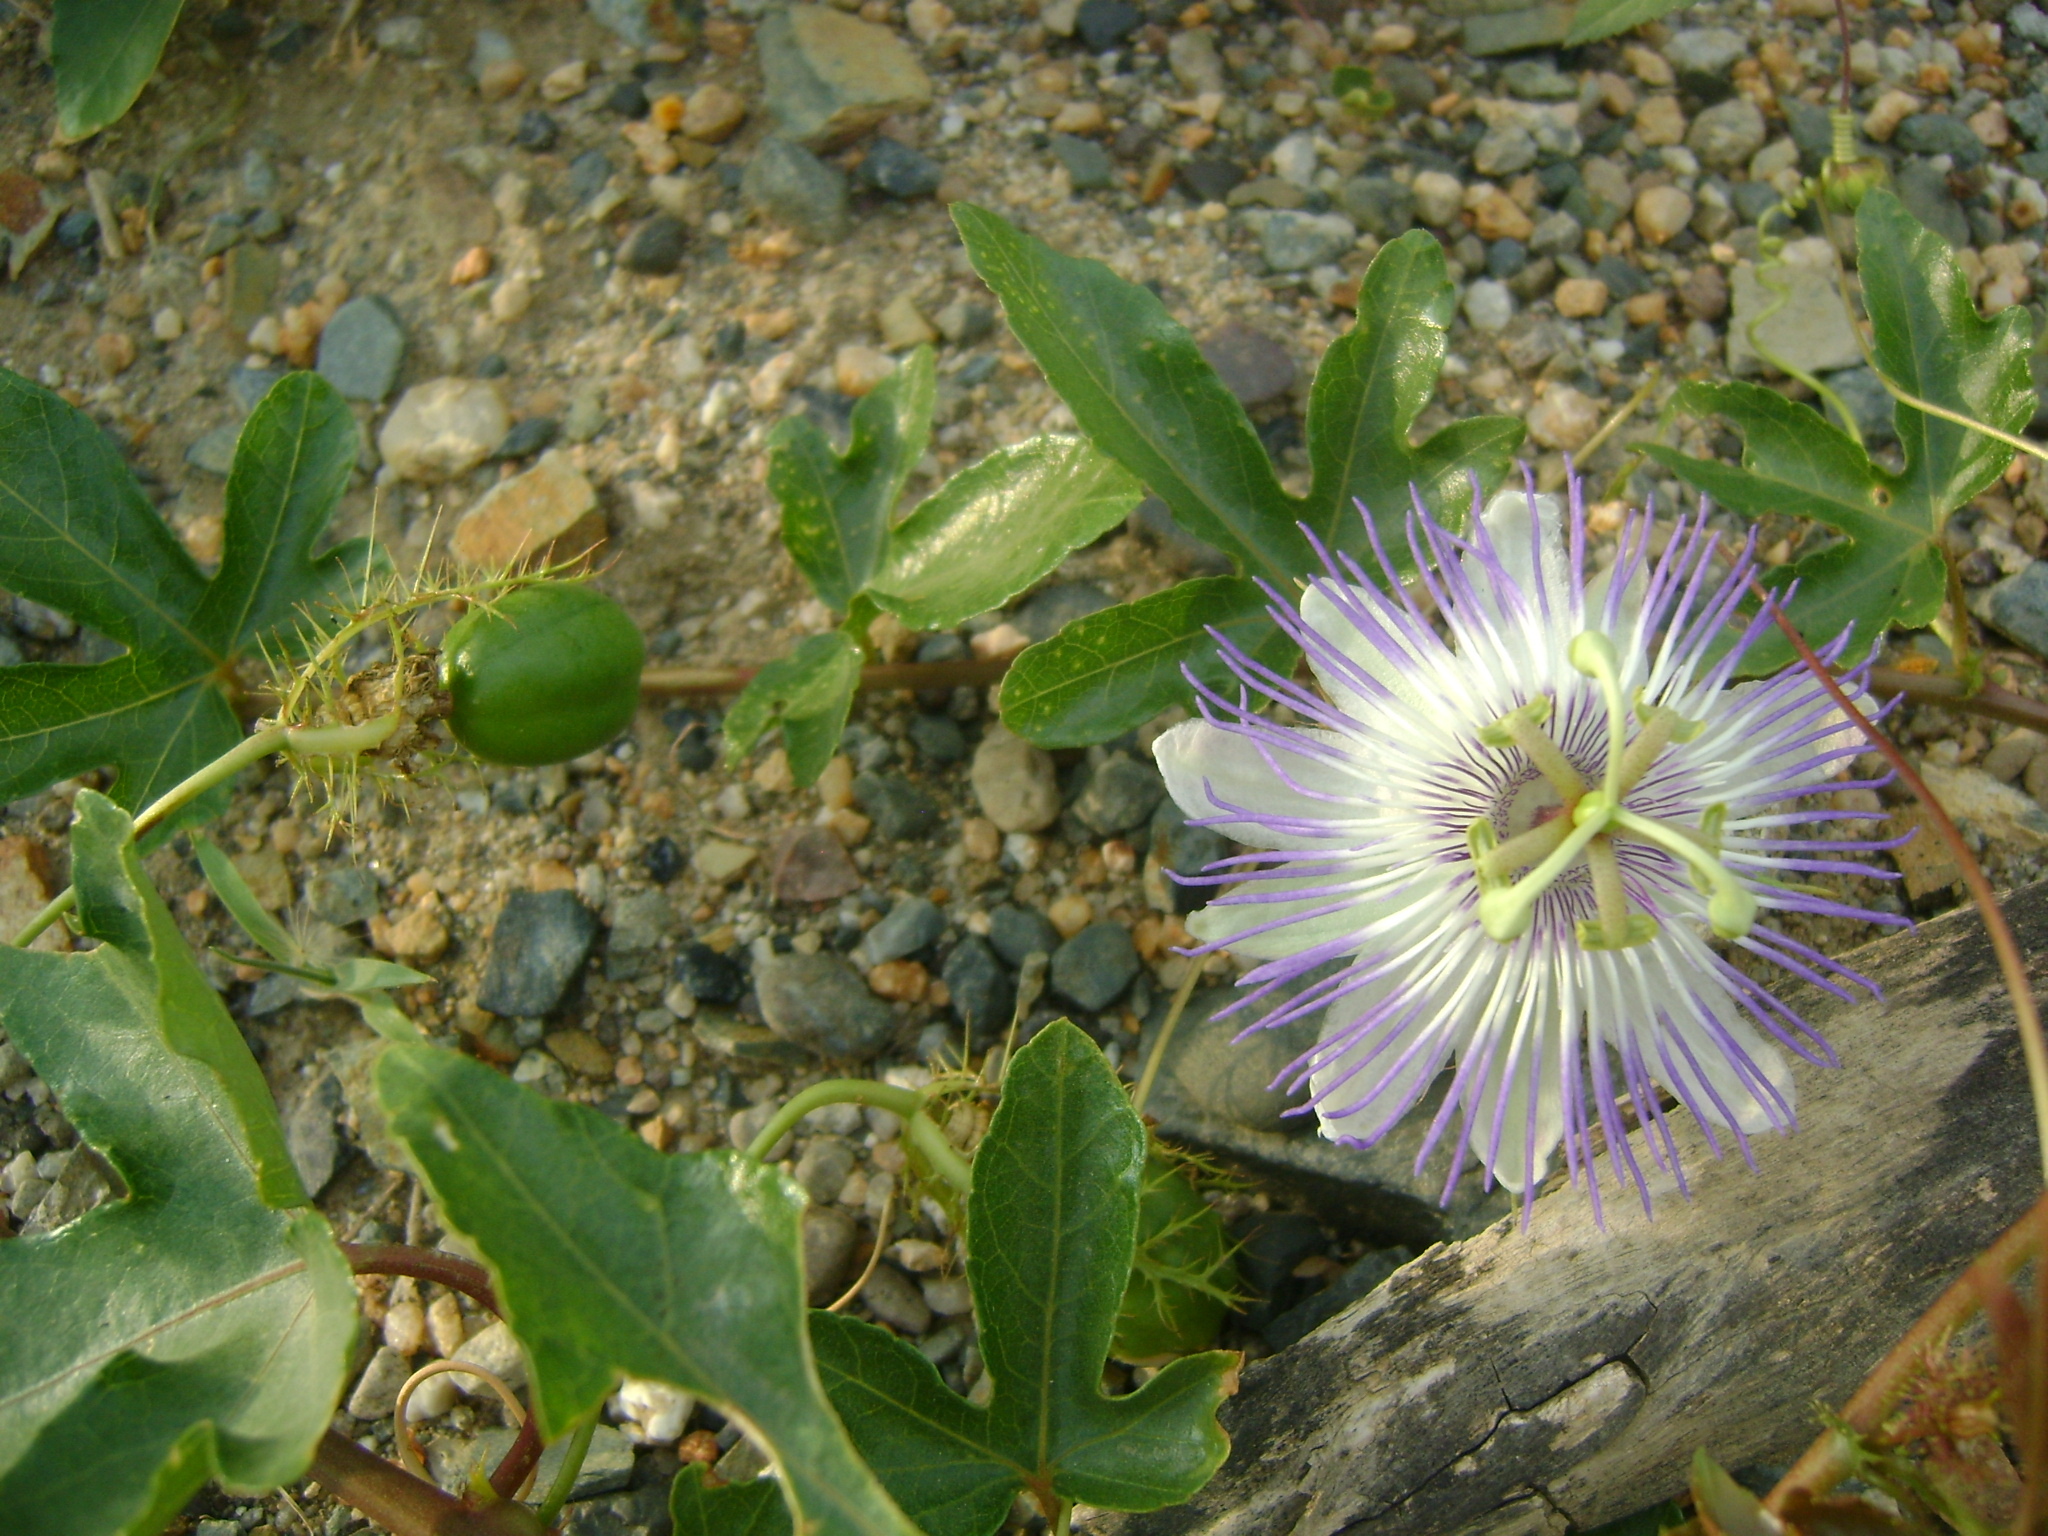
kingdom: Plantae
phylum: Tracheophyta
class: Magnoliopsida
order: Malpighiales
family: Passifloraceae
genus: Passiflora
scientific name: Passiflora ciliata
